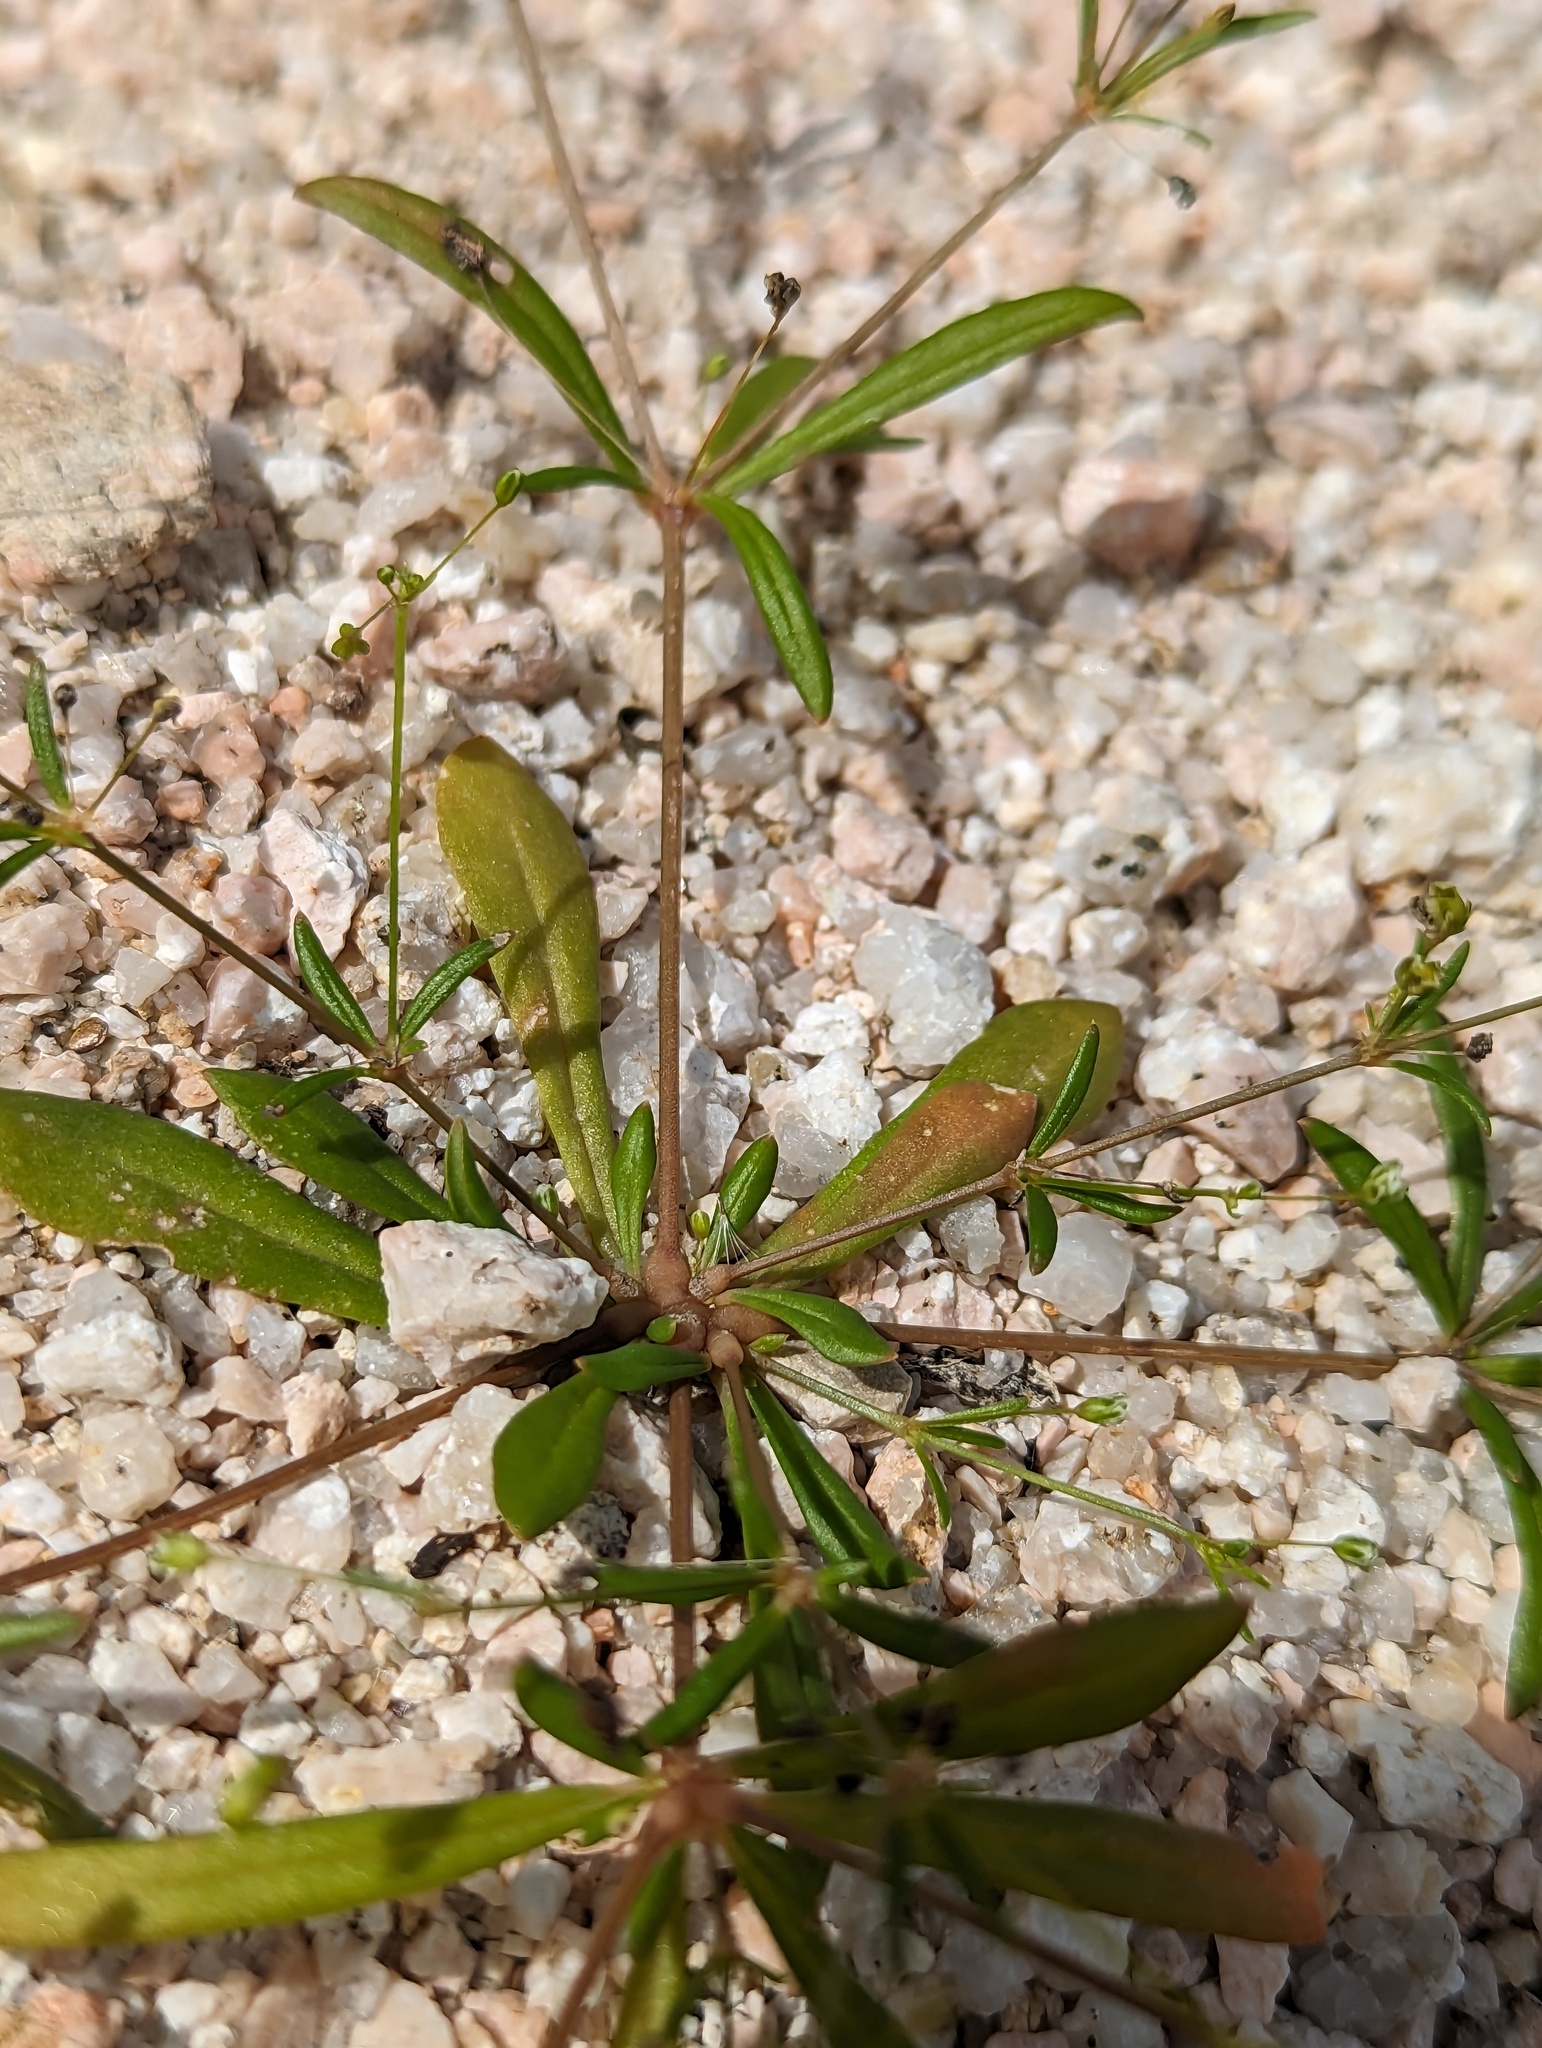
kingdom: Plantae
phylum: Tracheophyta
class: Magnoliopsida
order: Caryophyllales
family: Molluginaceae
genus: Mollugo
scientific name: Mollugo verticillata
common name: Green carpetweed
